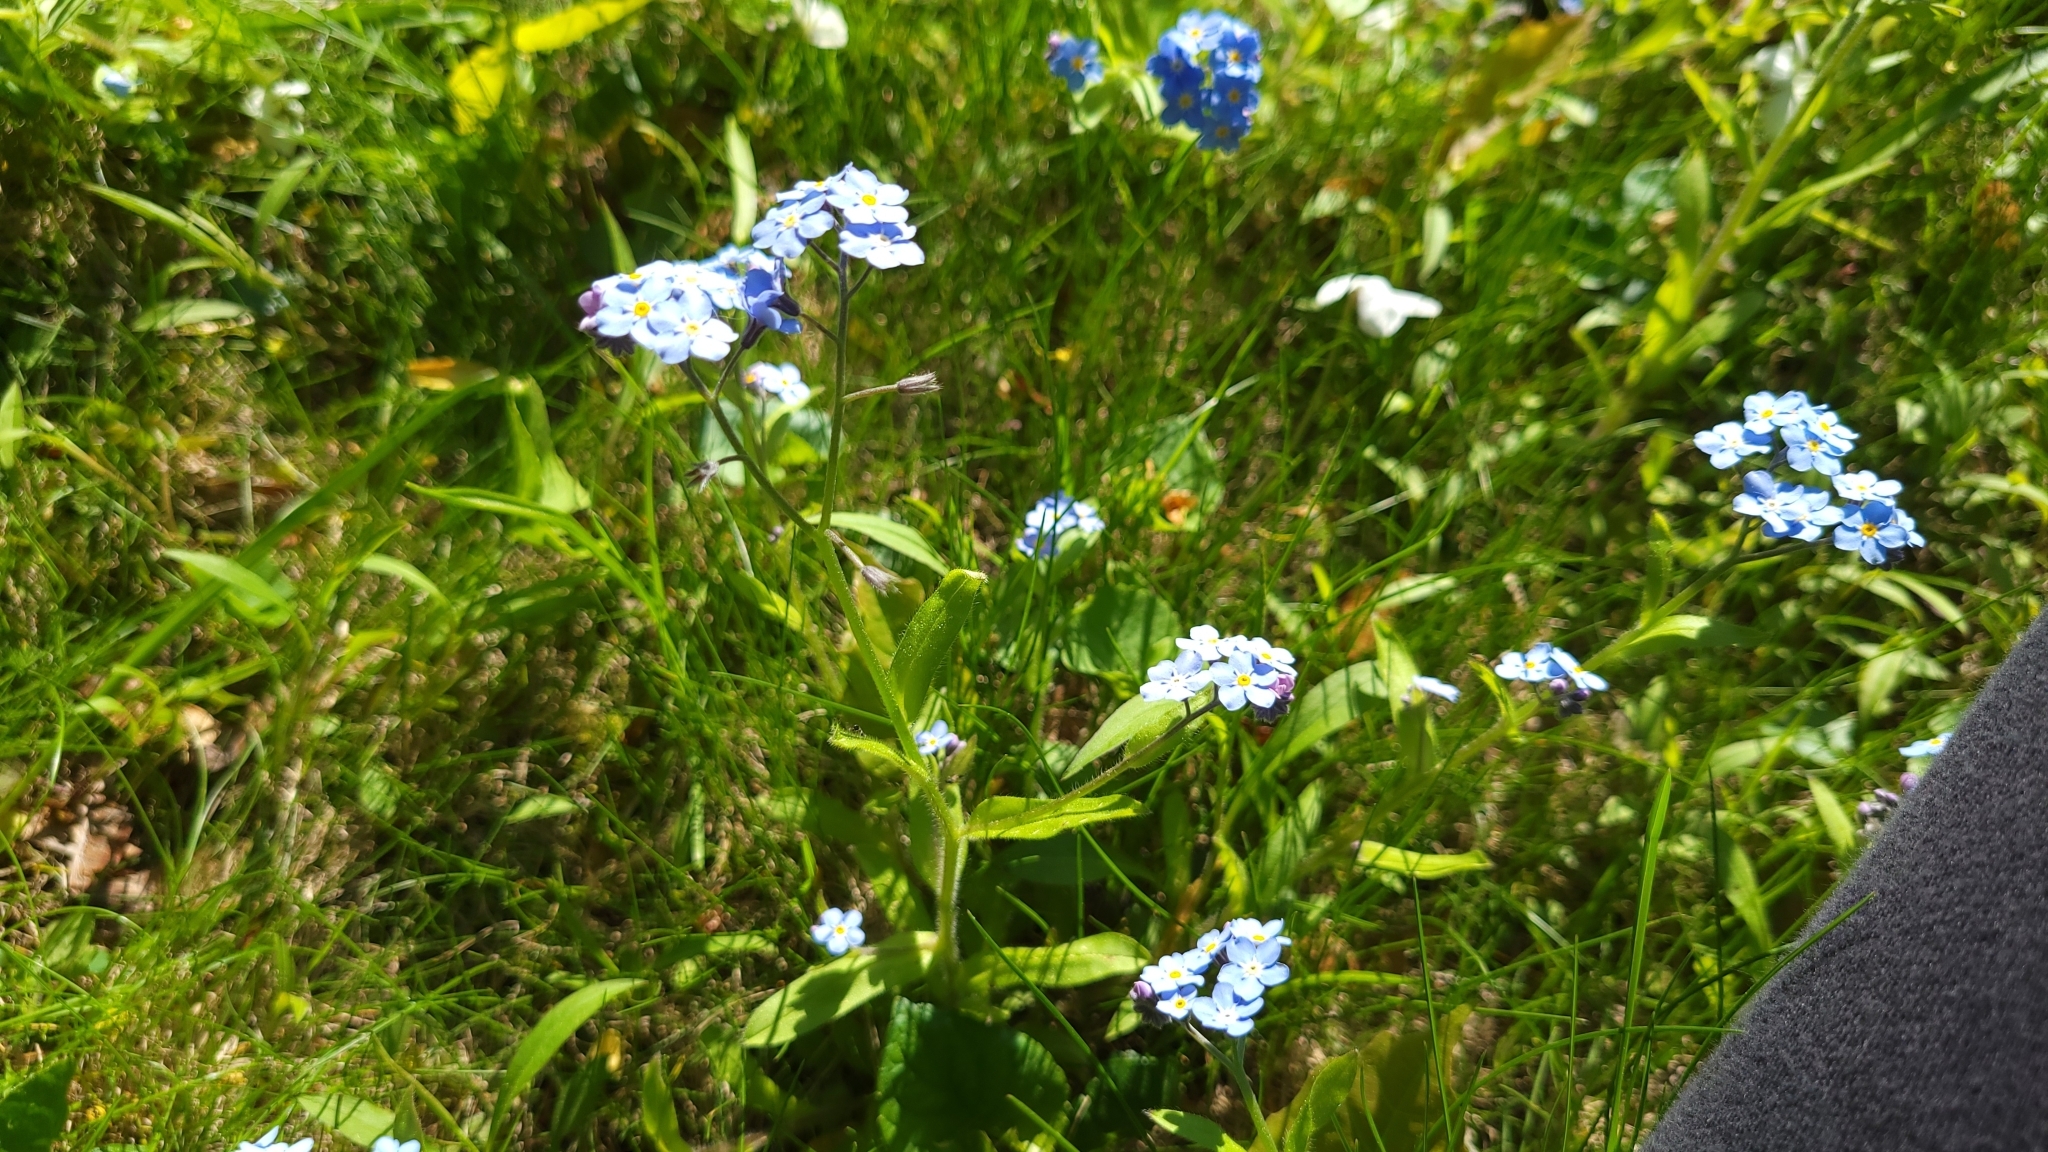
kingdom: Plantae
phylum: Tracheophyta
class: Magnoliopsida
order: Boraginales
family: Boraginaceae
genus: Myosotis
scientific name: Myosotis sylvatica
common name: Wood forget-me-not
